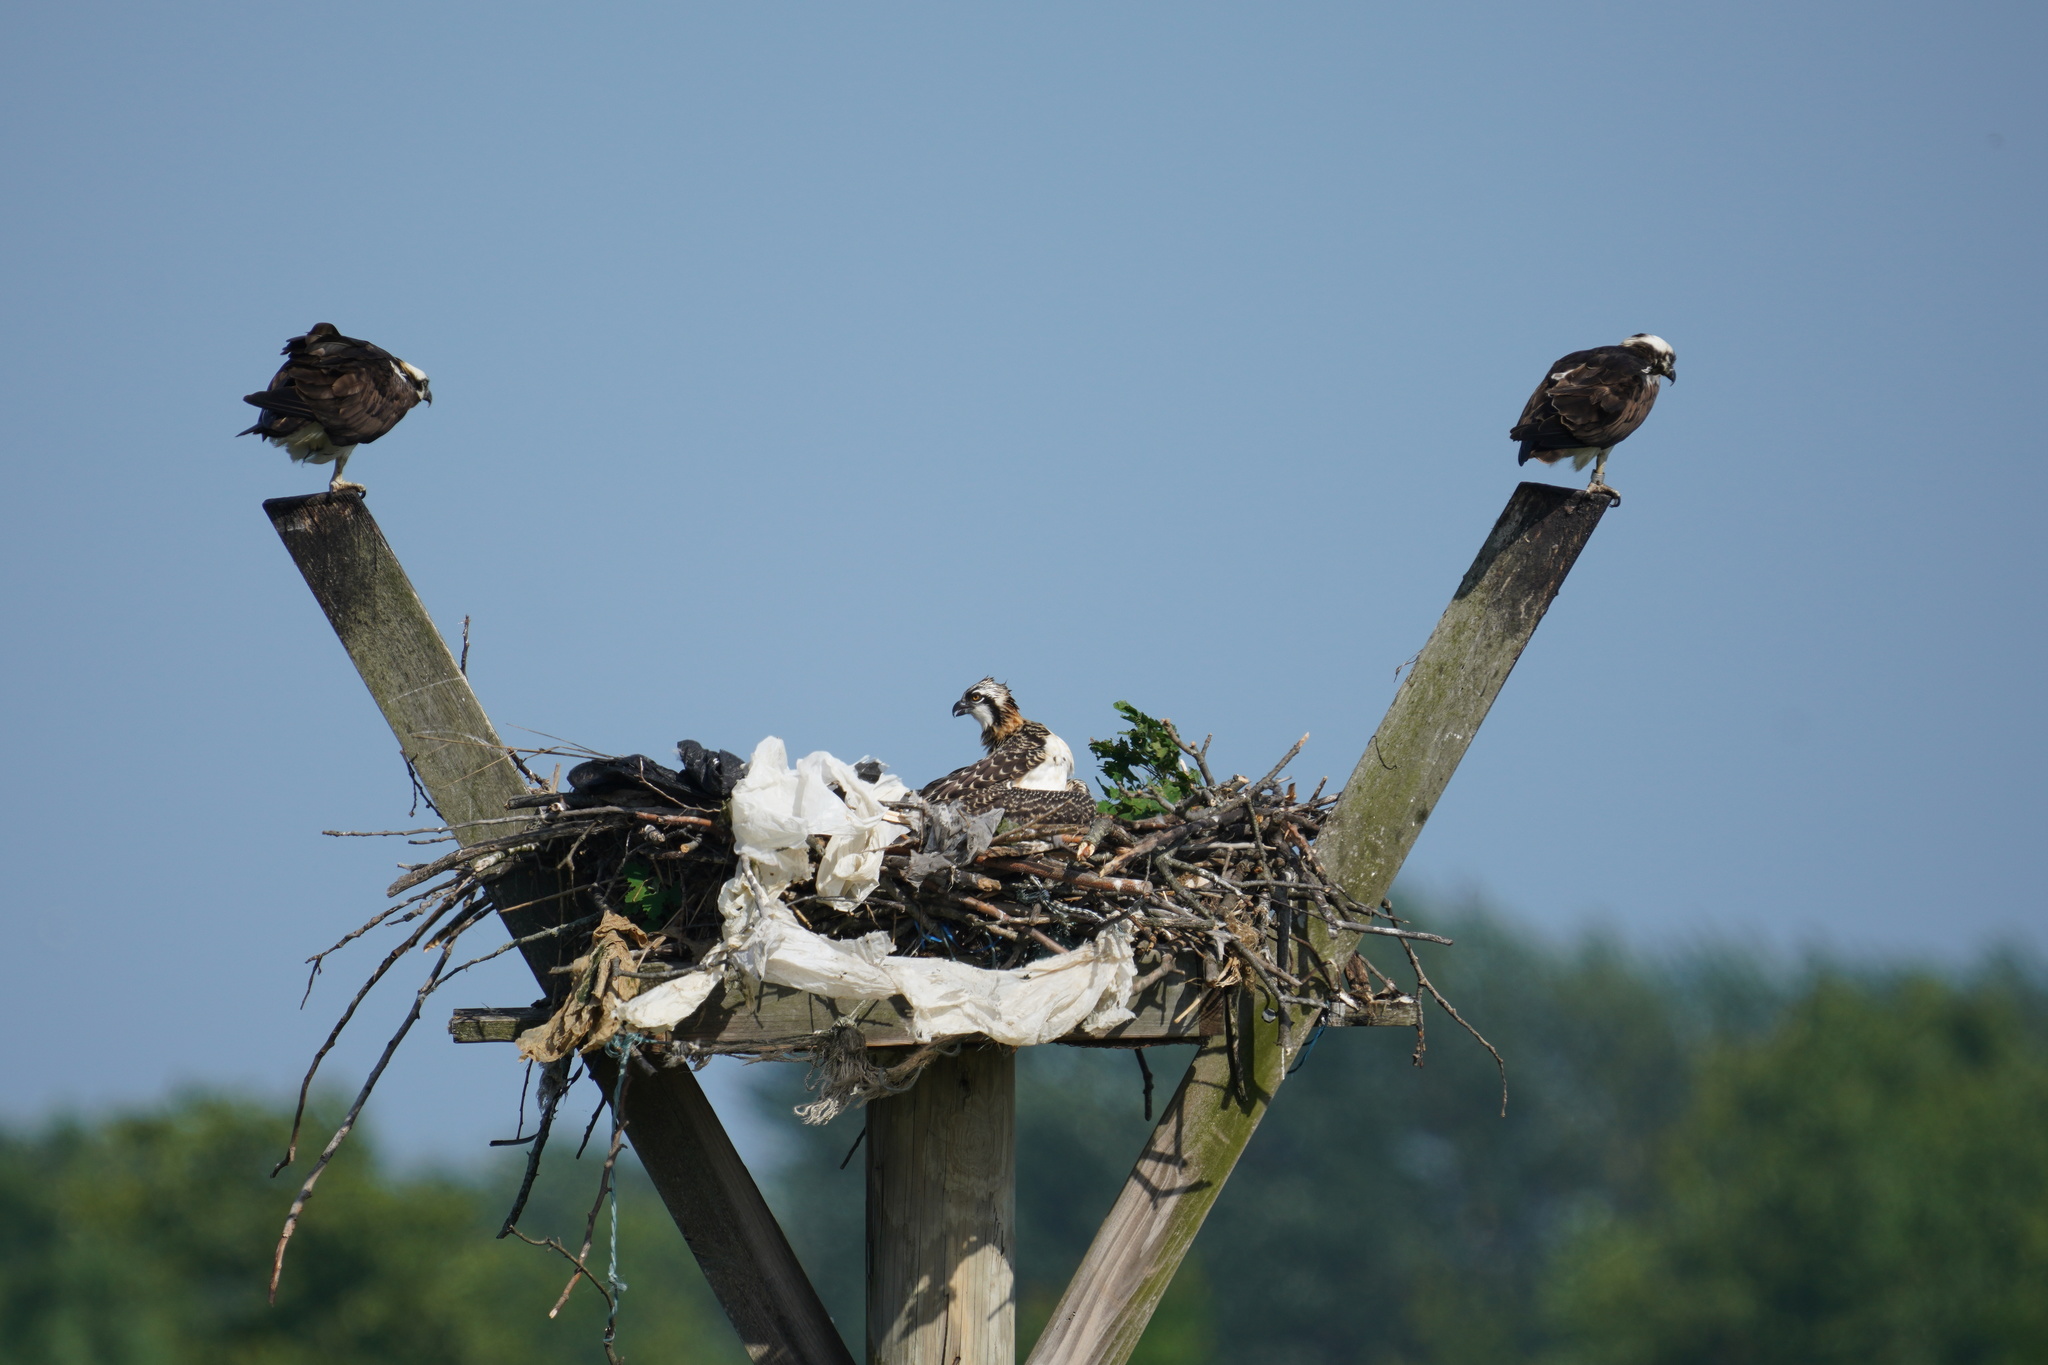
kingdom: Animalia
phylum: Chordata
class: Aves
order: Accipitriformes
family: Pandionidae
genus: Pandion
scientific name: Pandion haliaetus
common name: Osprey
